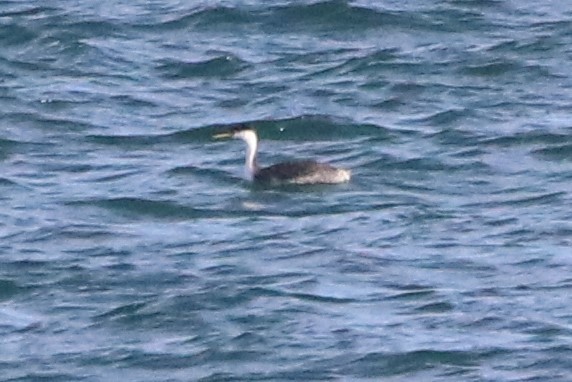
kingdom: Animalia
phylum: Chordata
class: Aves
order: Podicipediformes
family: Podicipedidae
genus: Aechmophorus
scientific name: Aechmophorus occidentalis
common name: Western grebe
